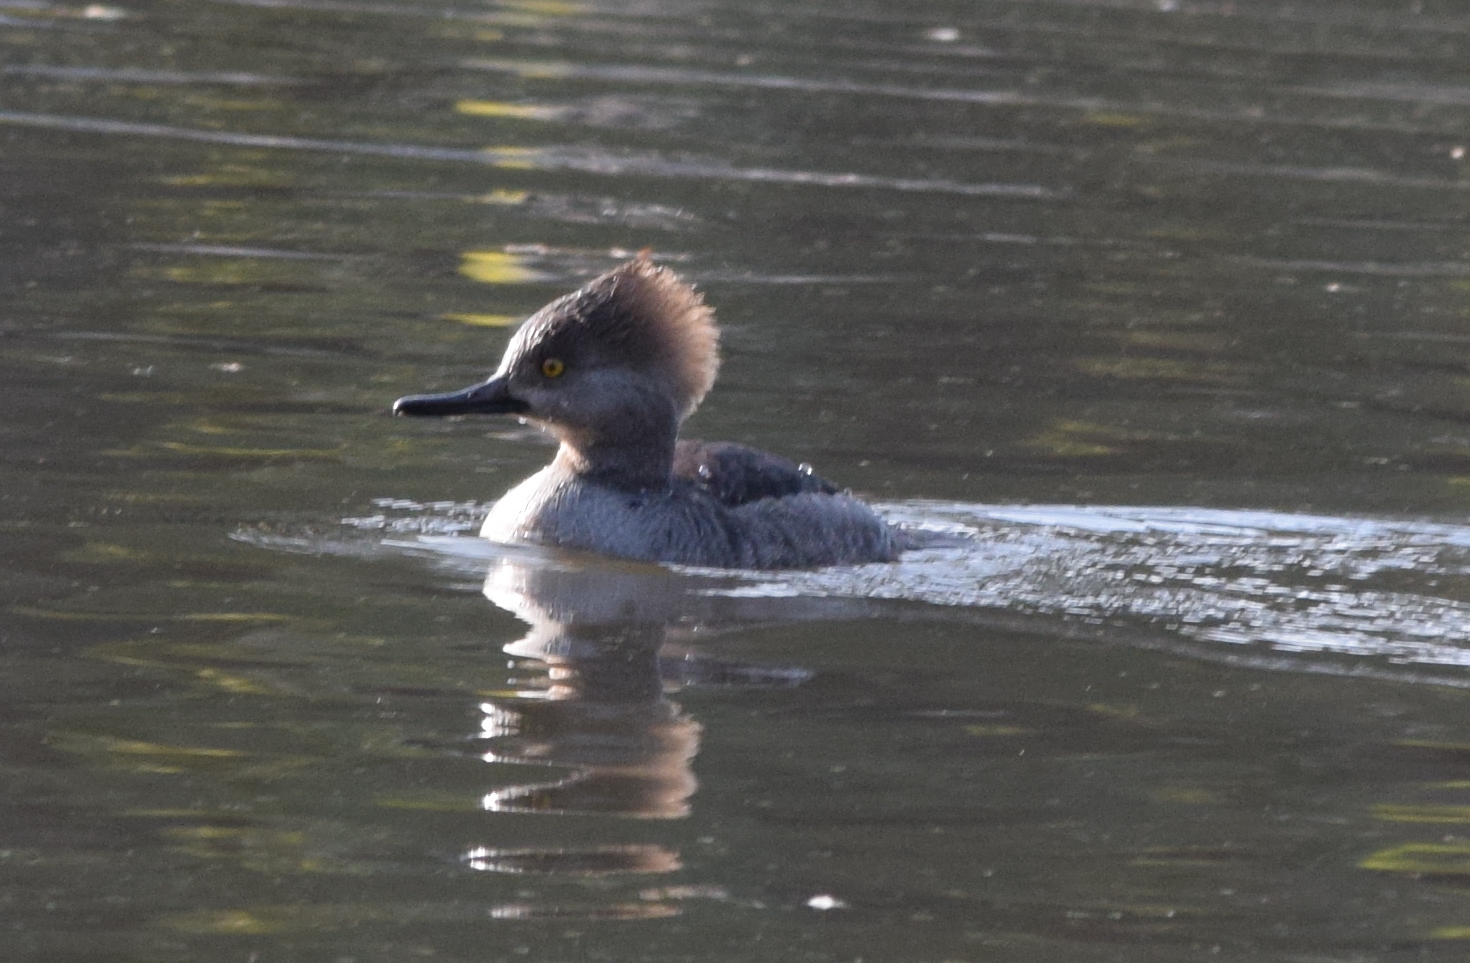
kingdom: Animalia
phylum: Chordata
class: Aves
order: Anseriformes
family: Anatidae
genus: Lophodytes
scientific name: Lophodytes cucullatus
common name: Hooded merganser
